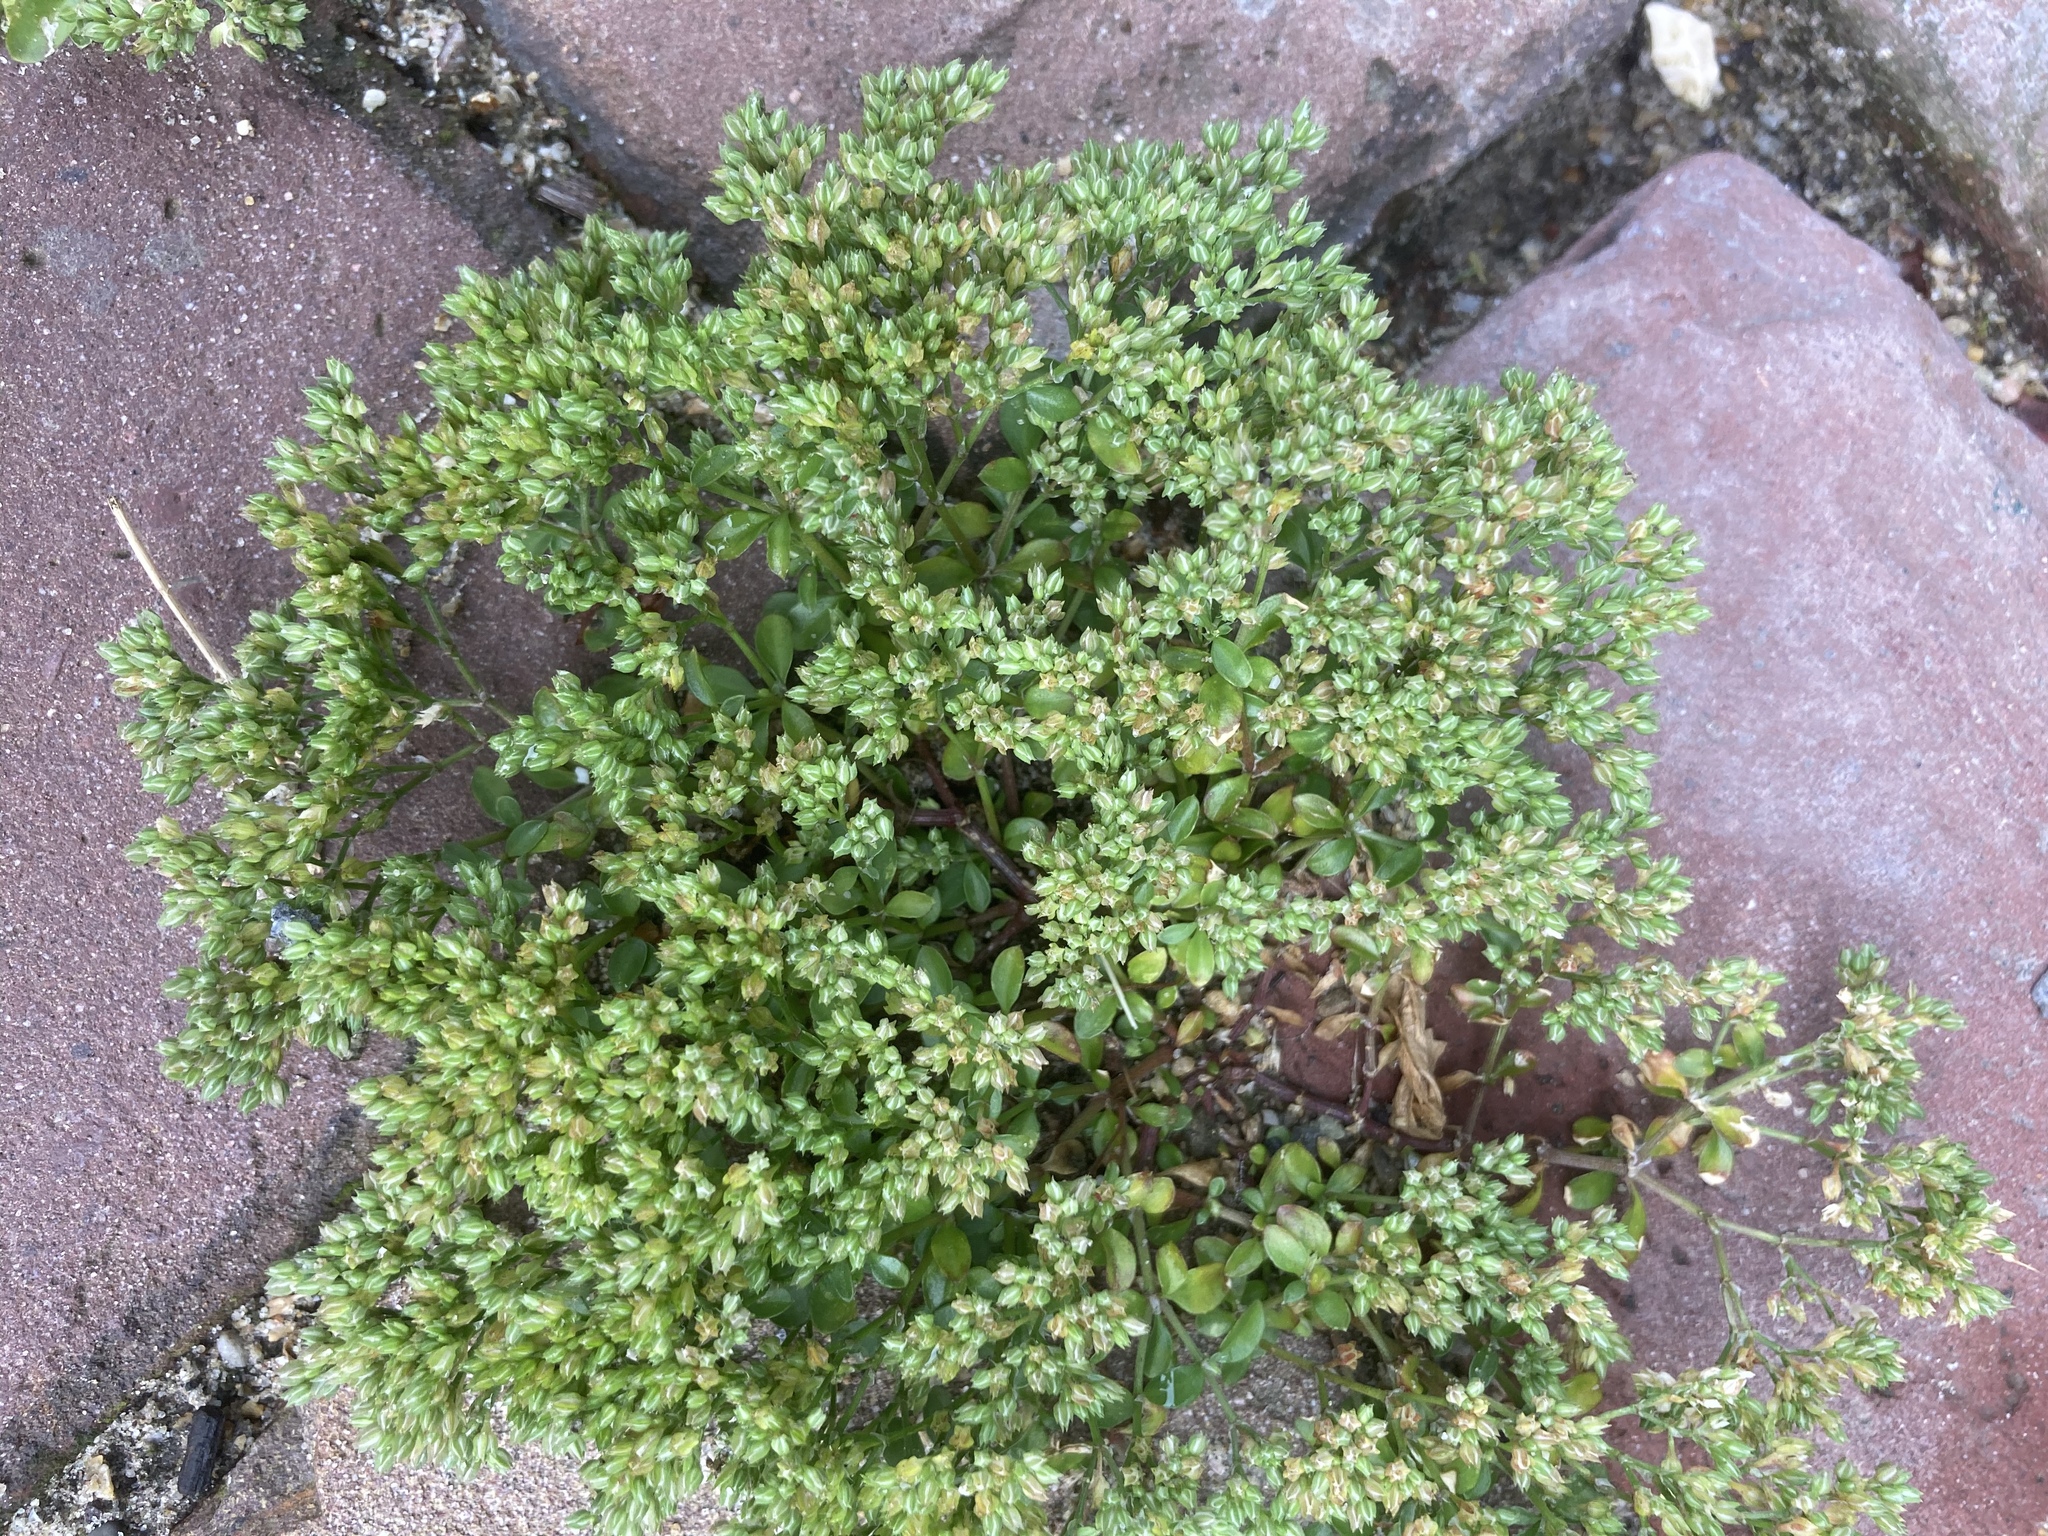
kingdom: Plantae
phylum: Tracheophyta
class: Magnoliopsida
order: Caryophyllales
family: Caryophyllaceae
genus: Polycarpon
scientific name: Polycarpon tetraphyllum
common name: Four-leaved all-seed
